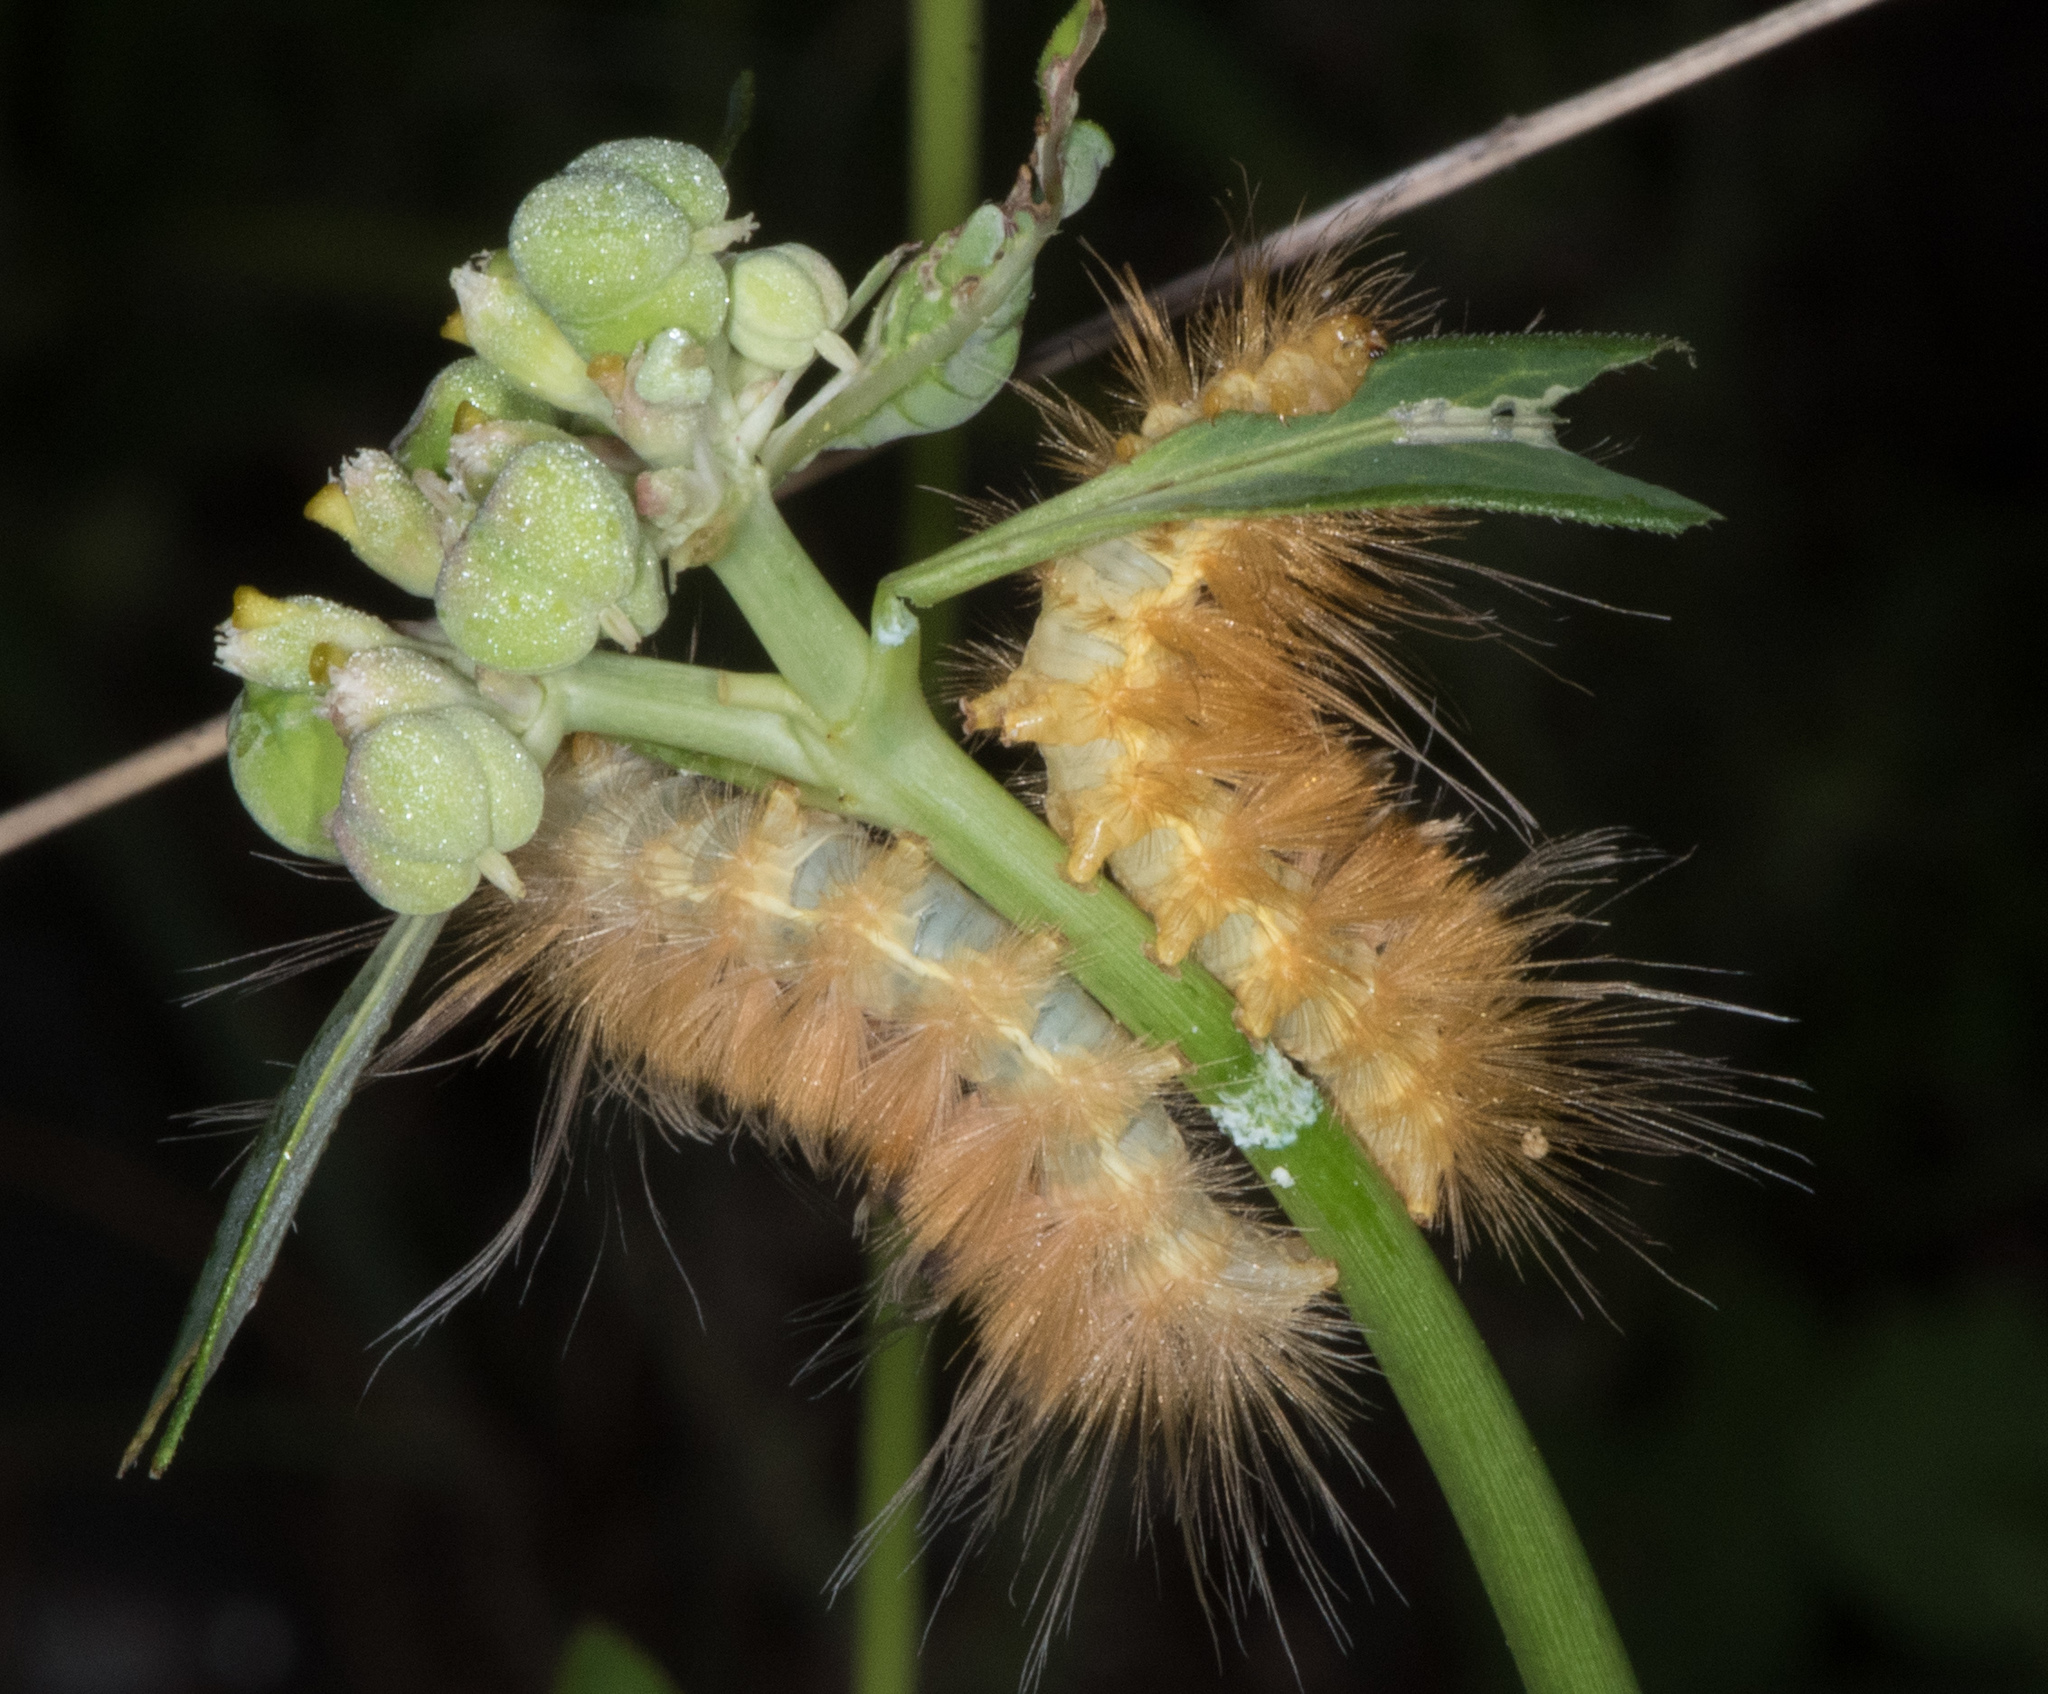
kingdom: Animalia
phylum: Arthropoda
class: Insecta
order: Lepidoptera
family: Erebidae
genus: Pygarctia
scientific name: Pygarctia roseicapitis
